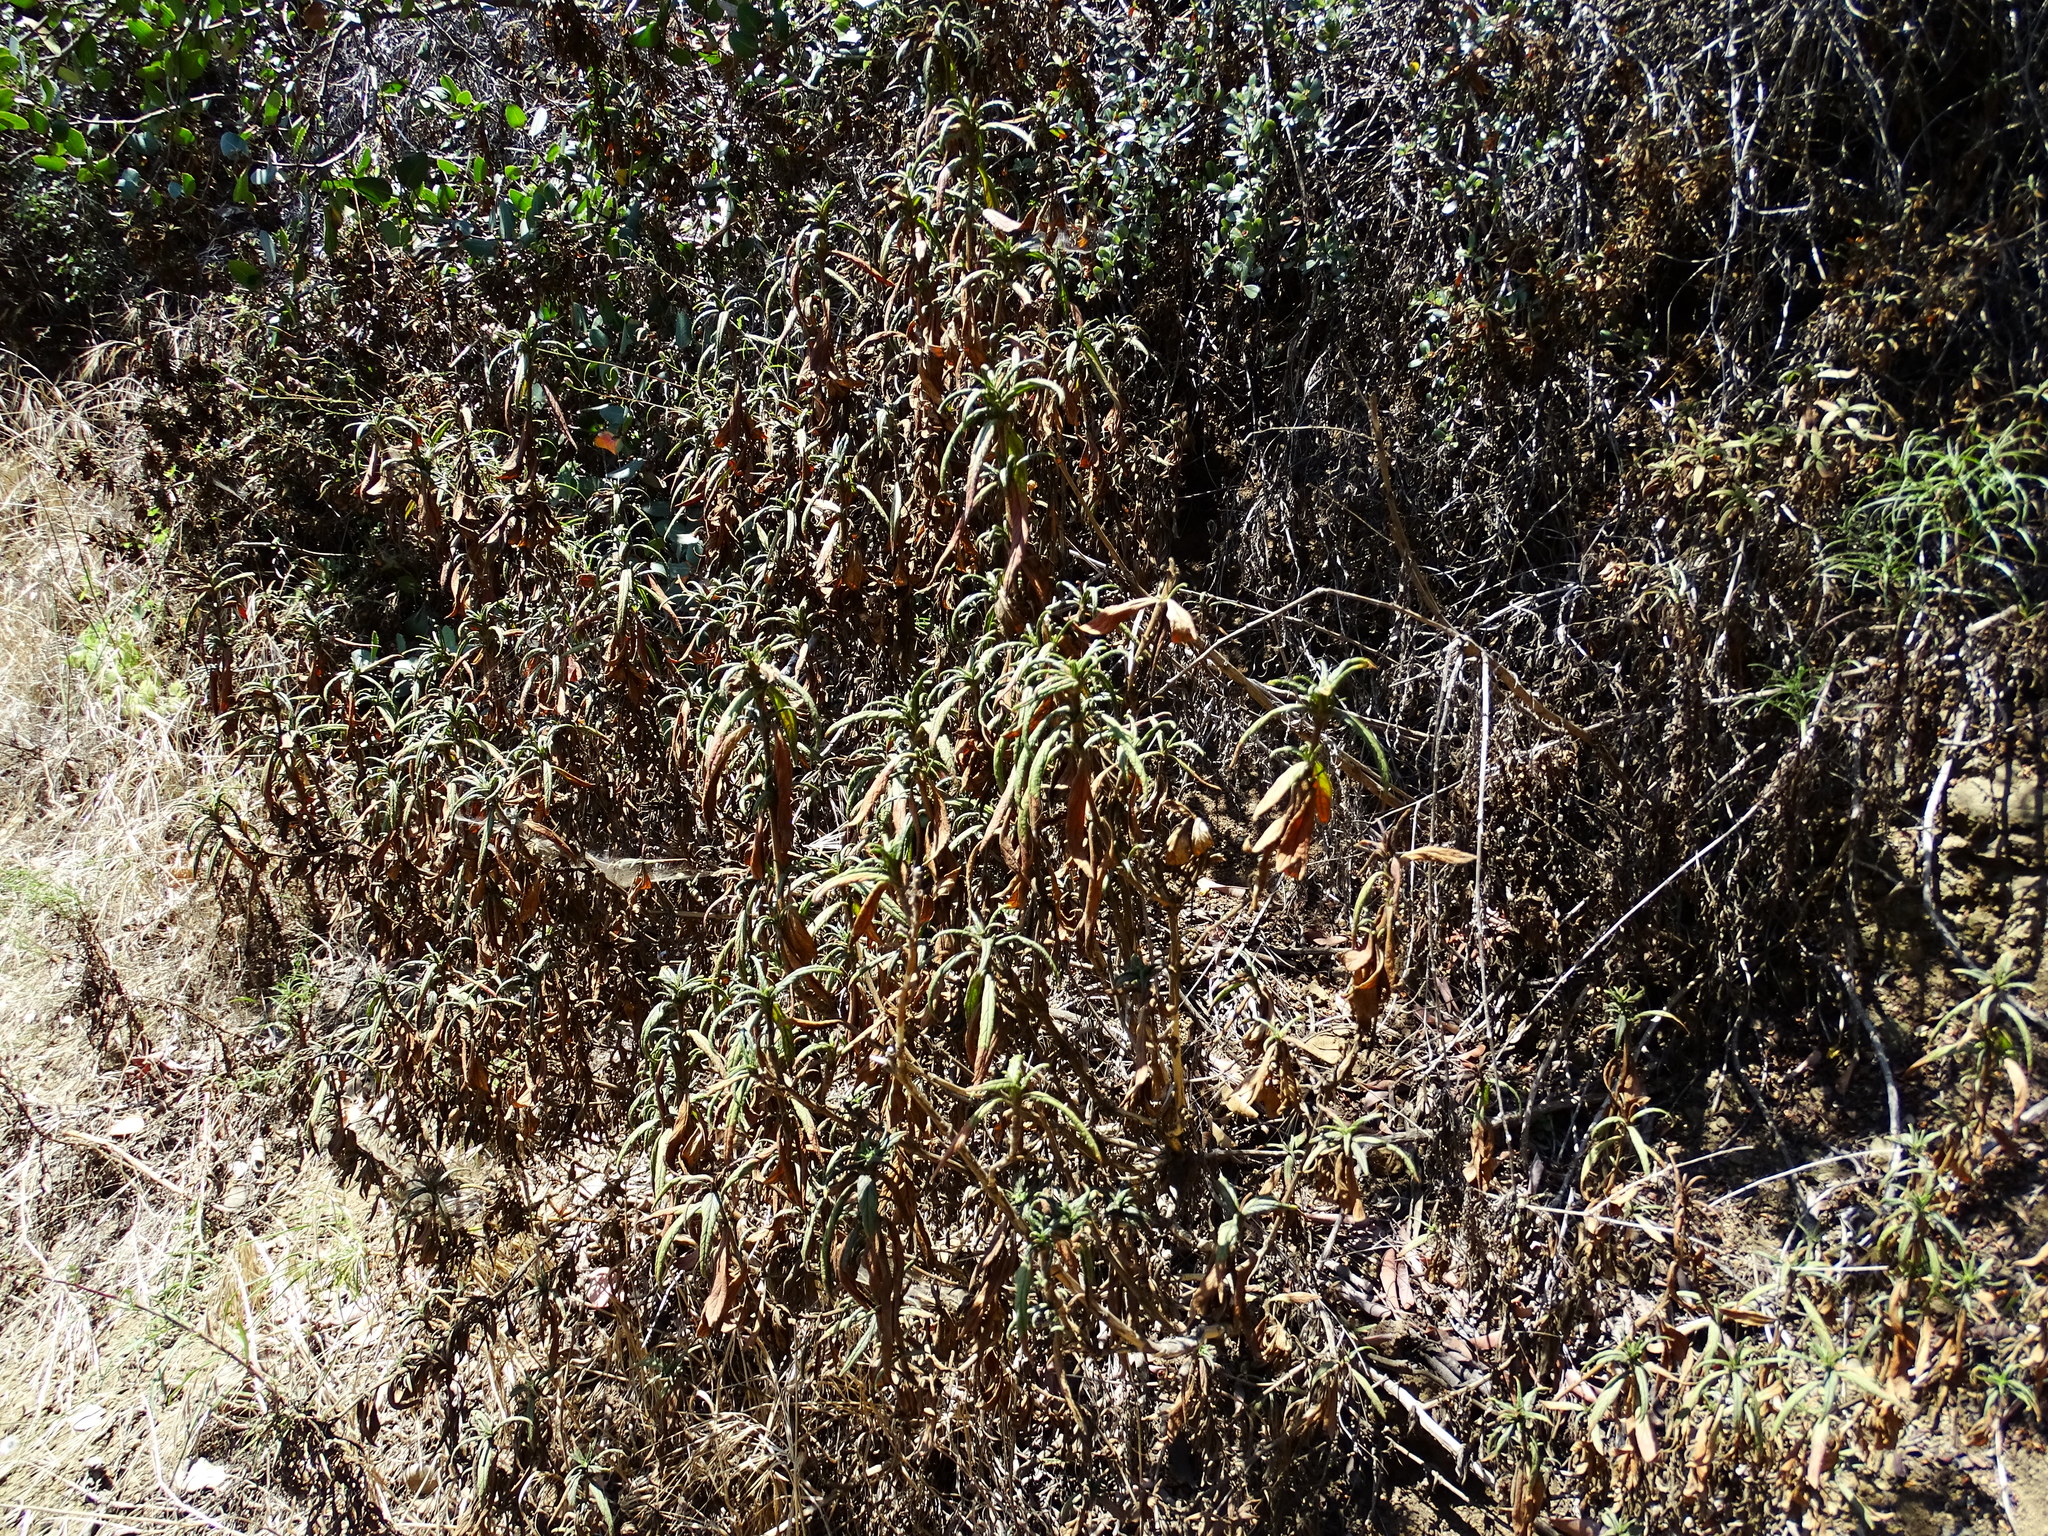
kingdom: Plantae
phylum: Tracheophyta
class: Magnoliopsida
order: Lamiales
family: Phrymaceae
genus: Diplacus
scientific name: Diplacus longiflorus
